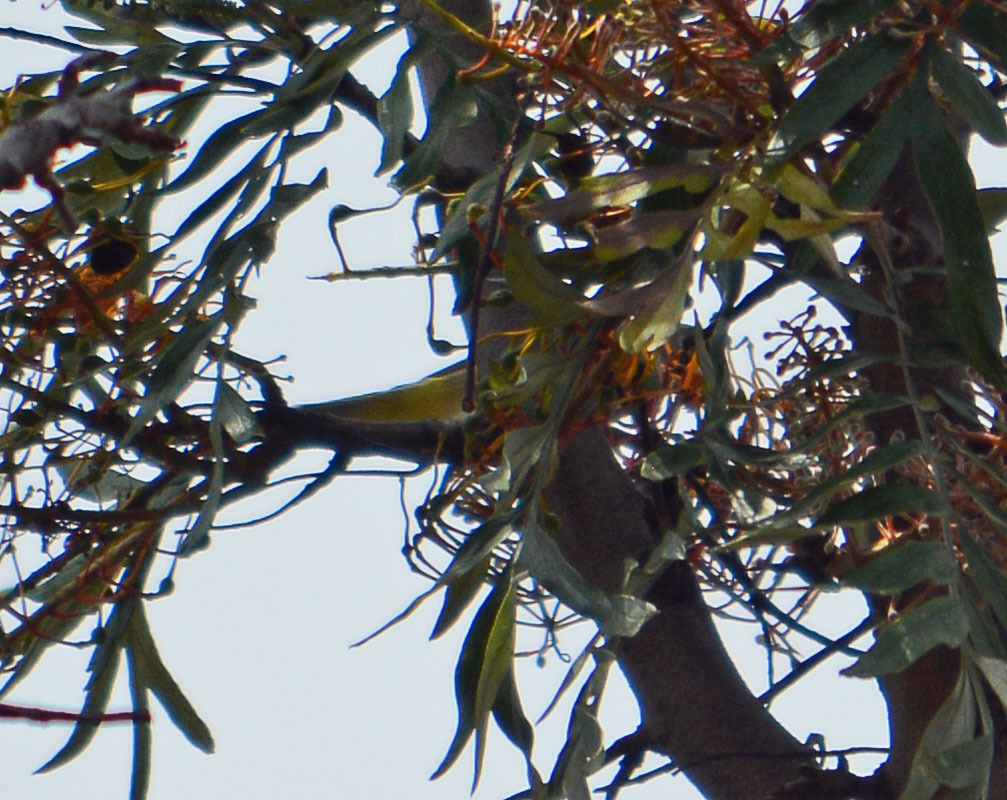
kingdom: Animalia
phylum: Chordata
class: Aves
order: Passeriformes
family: Parulidae
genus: Leiothlypis
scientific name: Leiothlypis ruficapilla
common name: Nashville warbler
